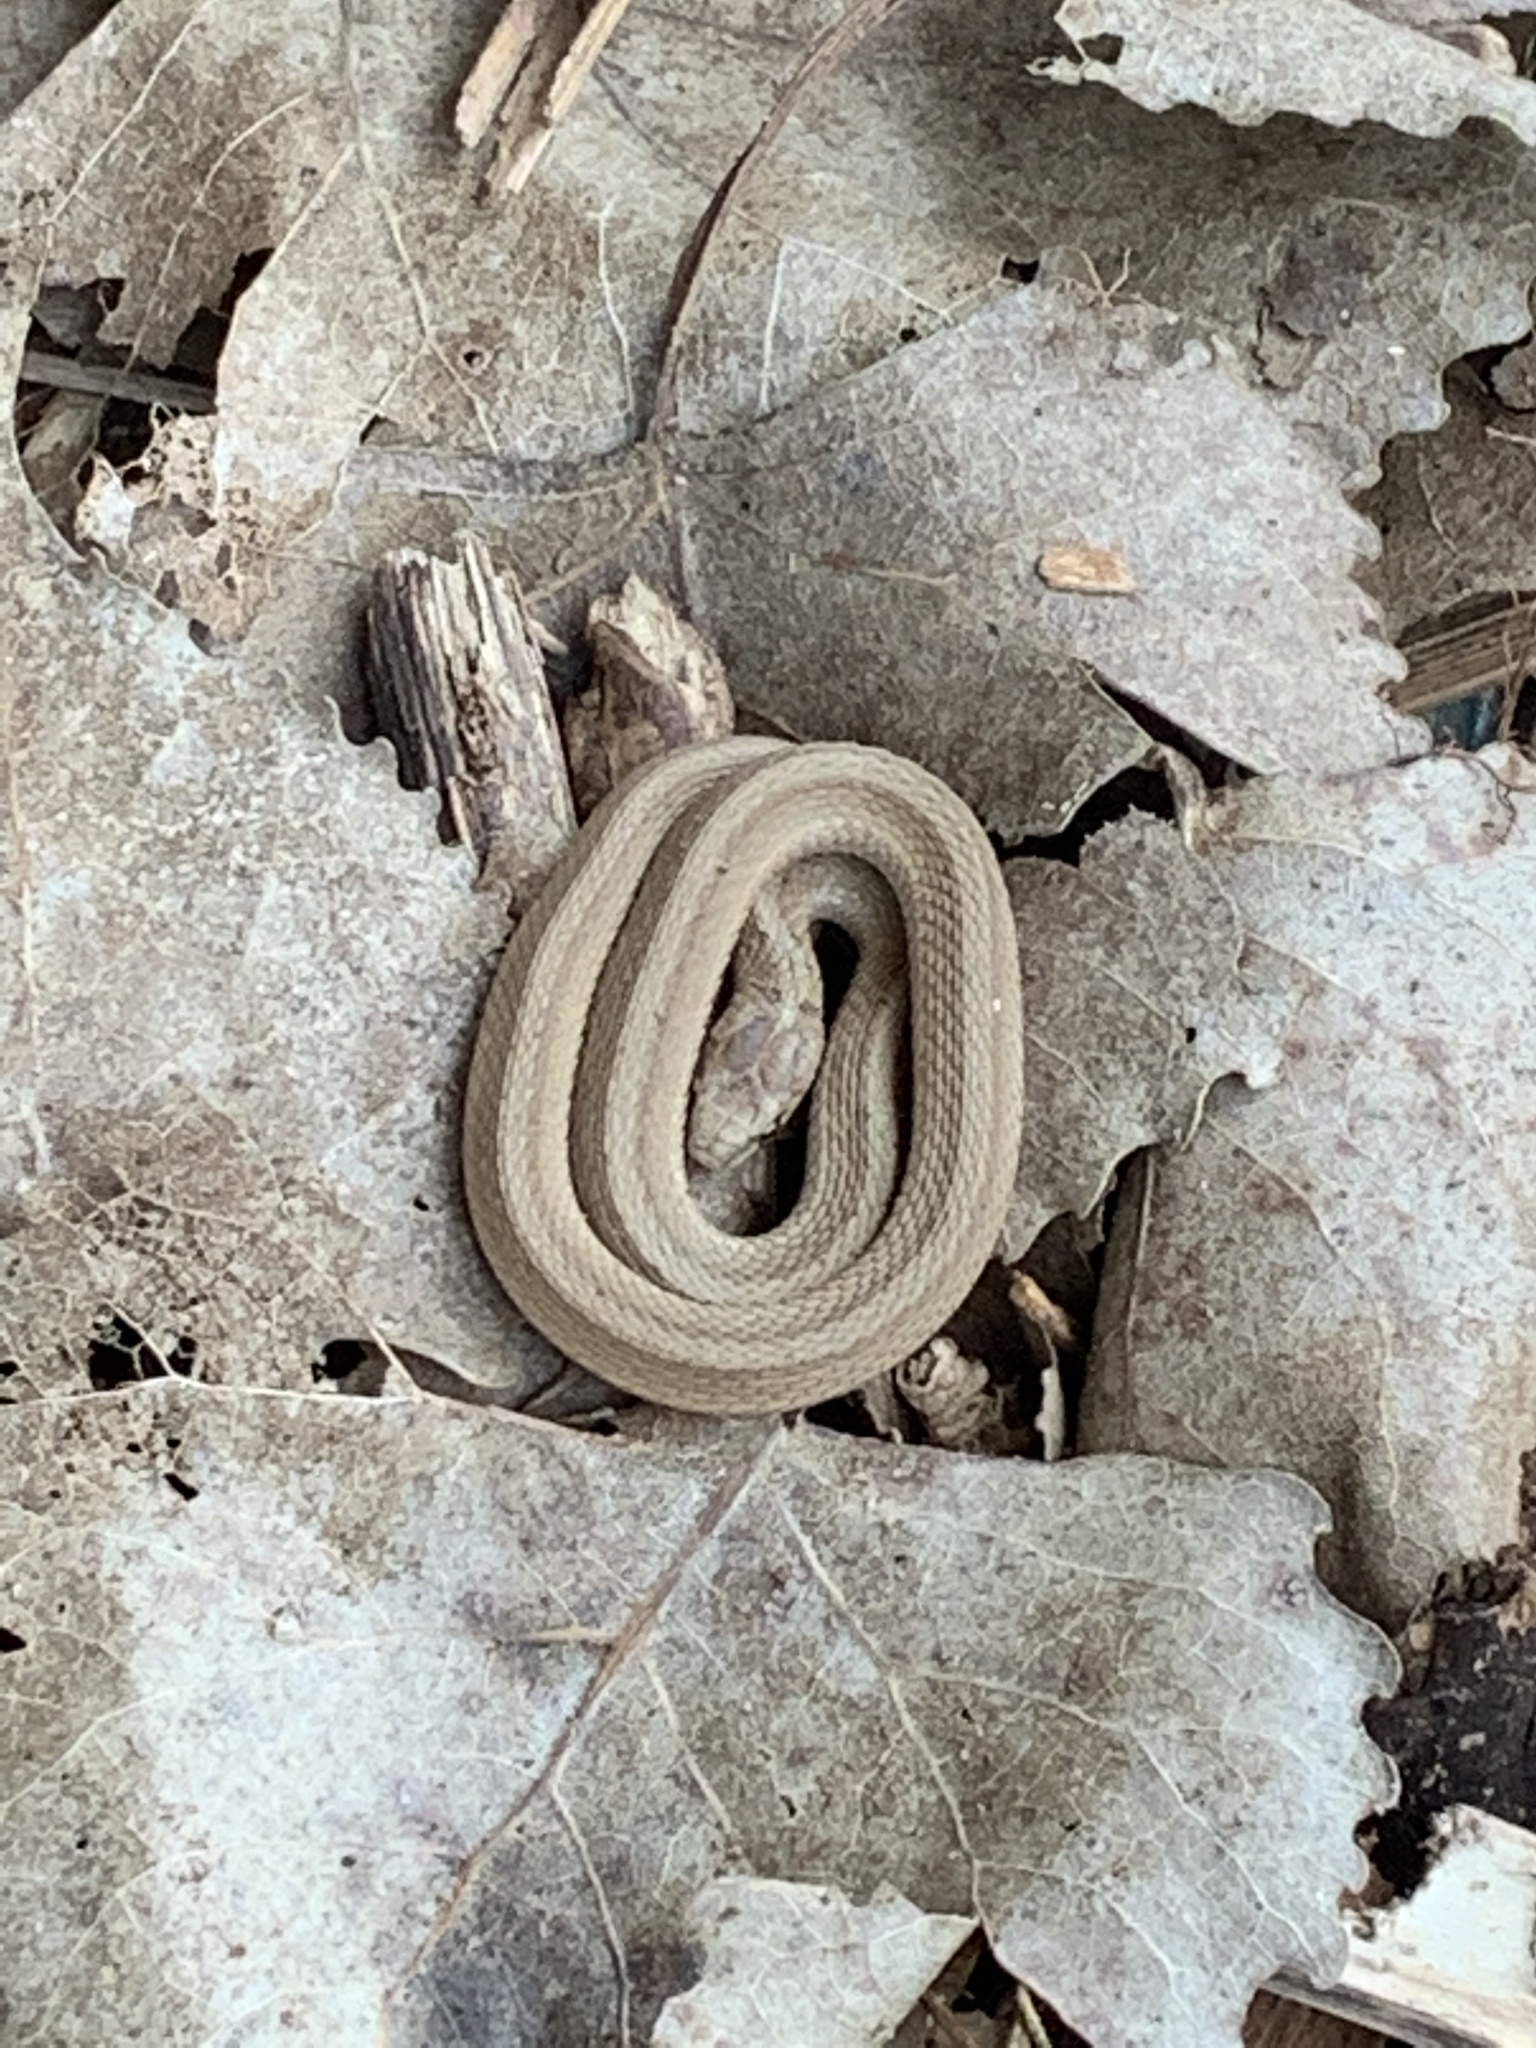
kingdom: Animalia
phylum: Chordata
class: Squamata
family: Colubridae
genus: Storeria
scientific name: Storeria dekayi
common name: (dekay’s) brown snake
